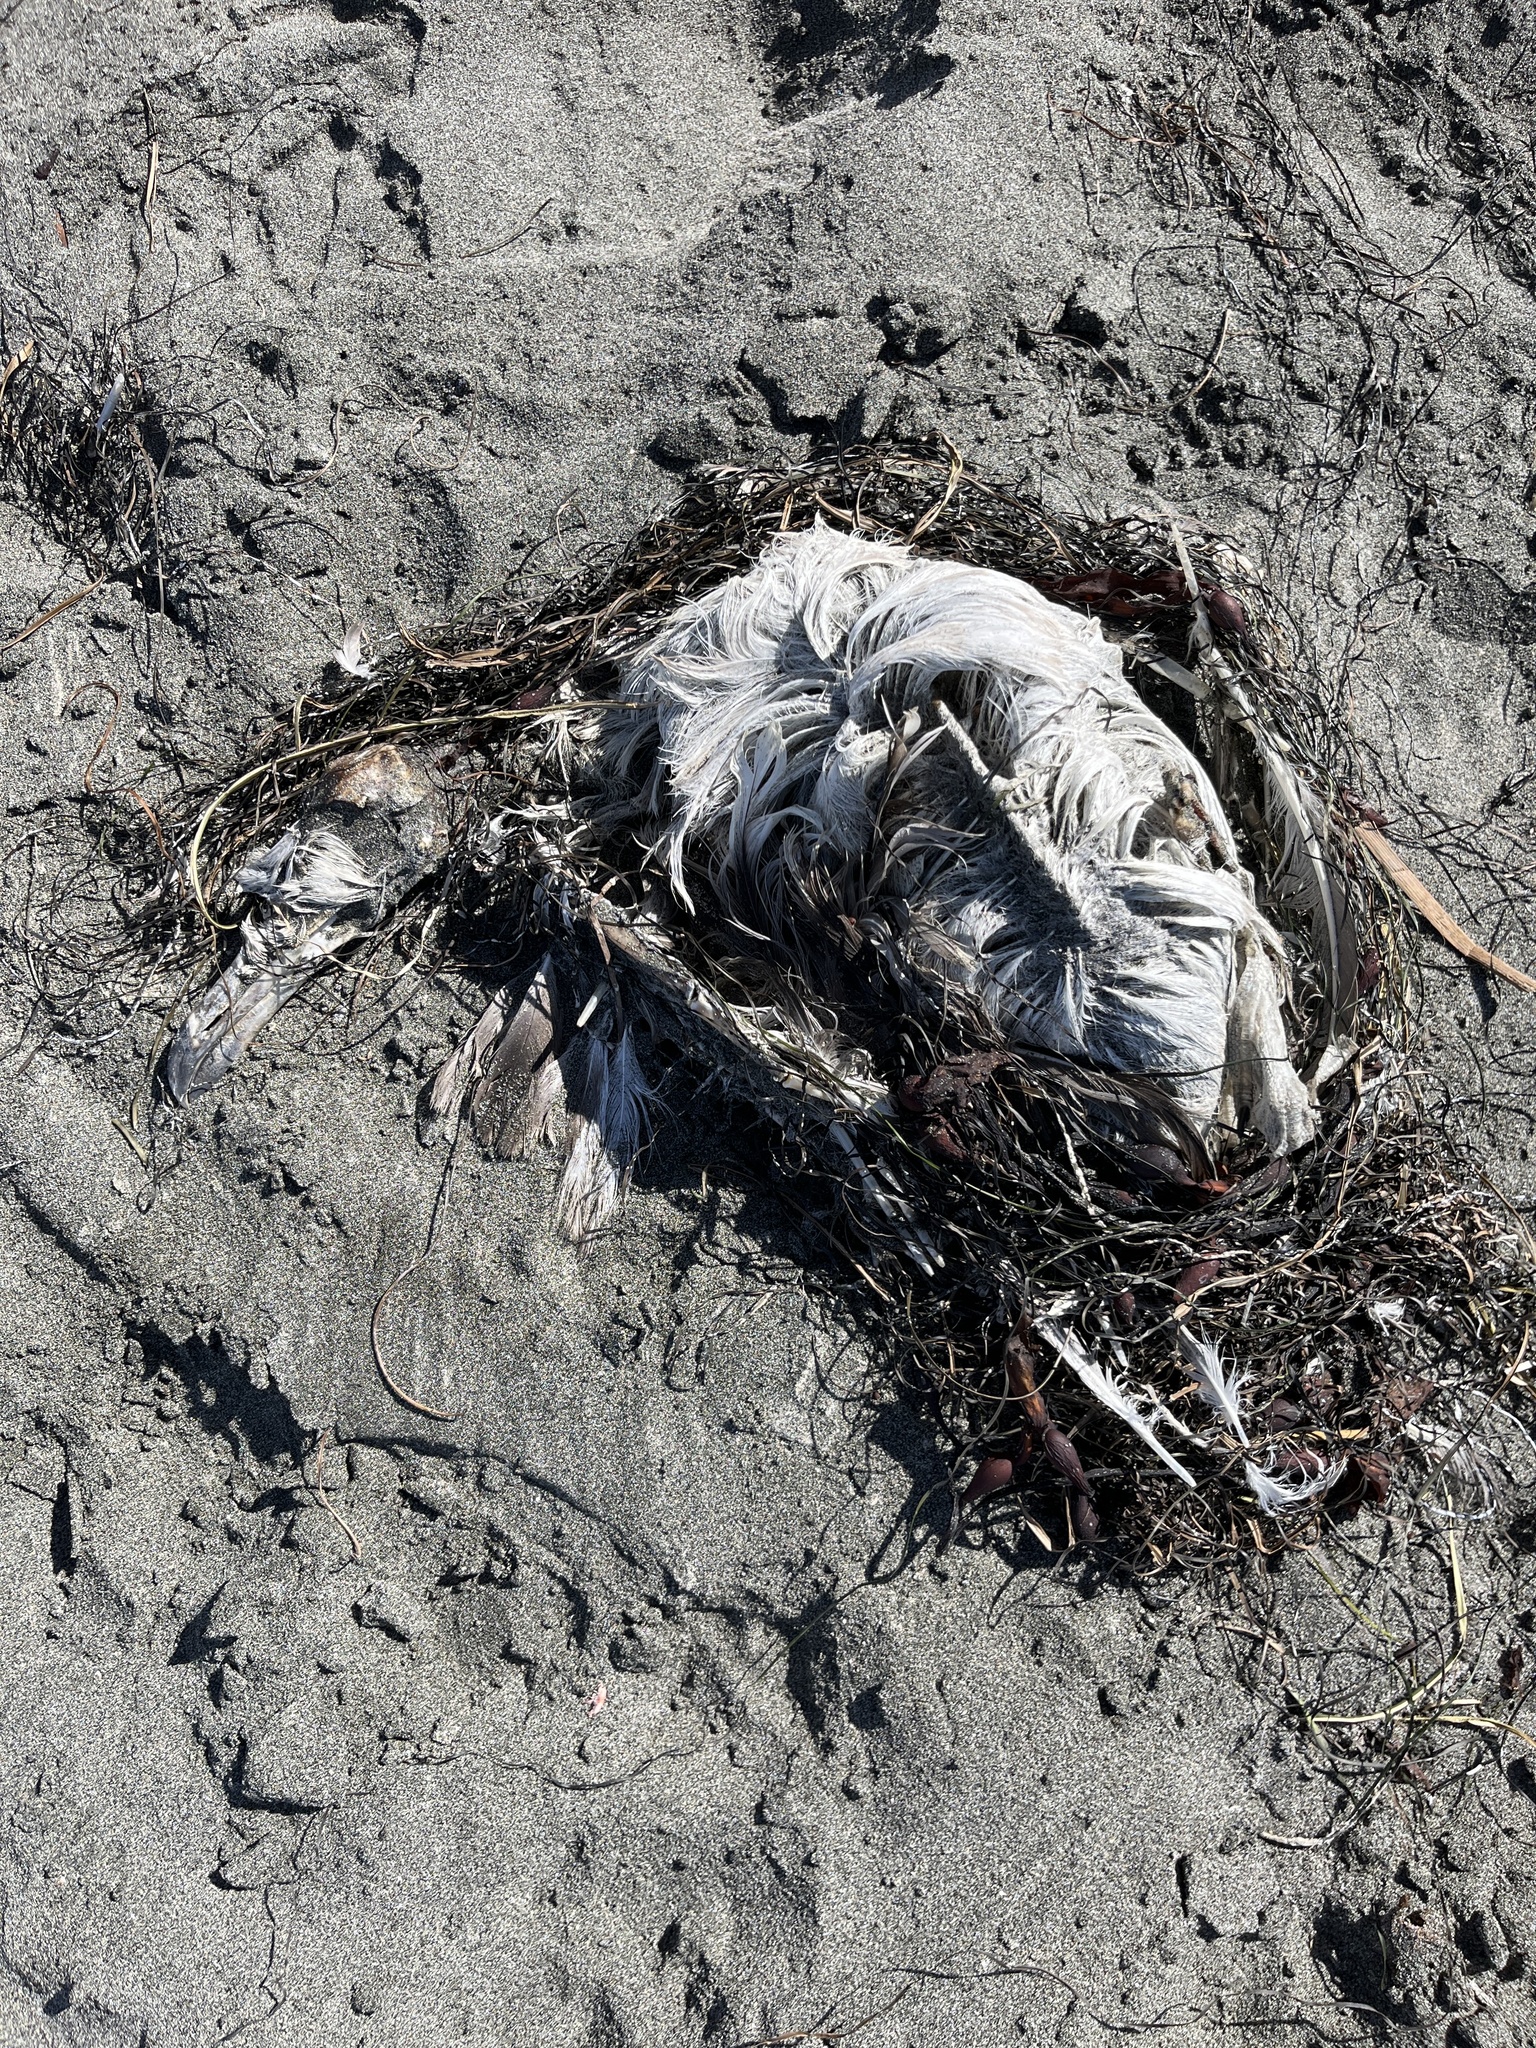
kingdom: Animalia
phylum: Chordata
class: Aves
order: Charadriiformes
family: Laridae
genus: Larus
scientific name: Larus
